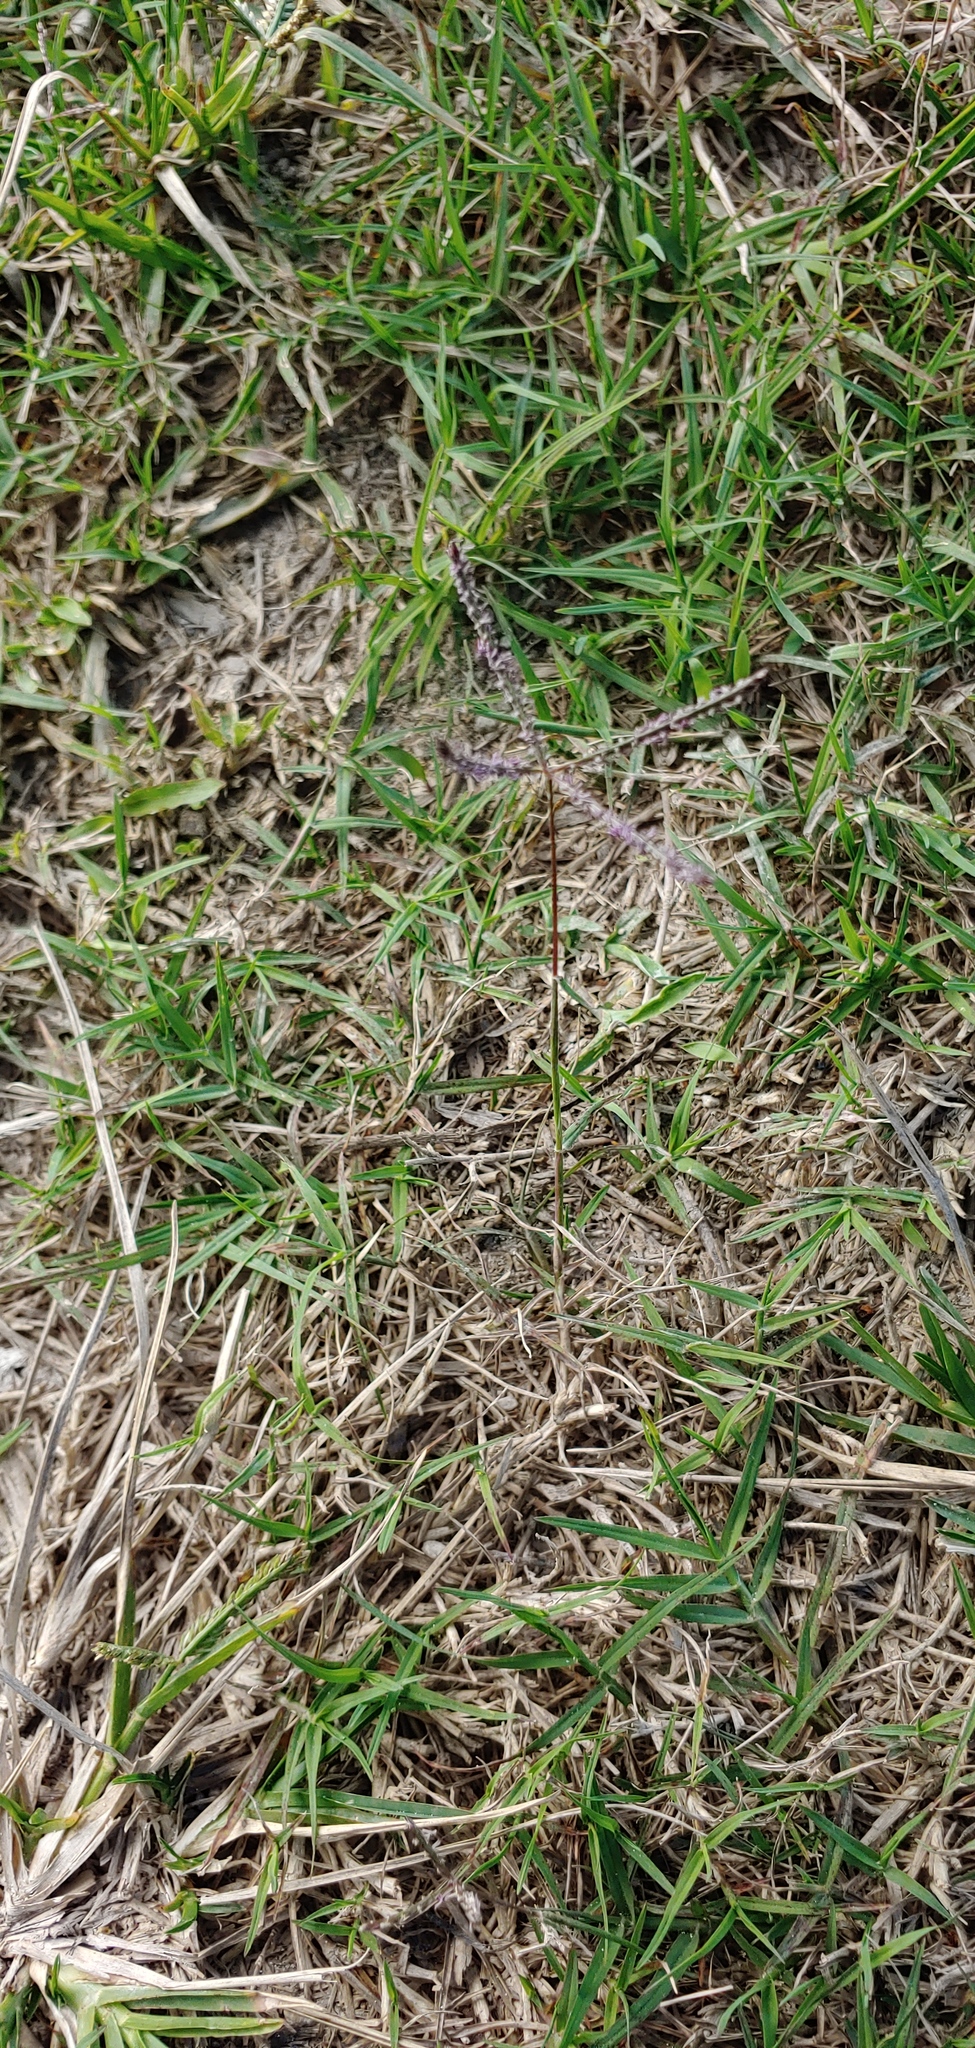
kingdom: Plantae
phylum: Tracheophyta
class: Liliopsida
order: Poales
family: Poaceae
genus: Cynodon
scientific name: Cynodon dactylon
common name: Bermuda grass
